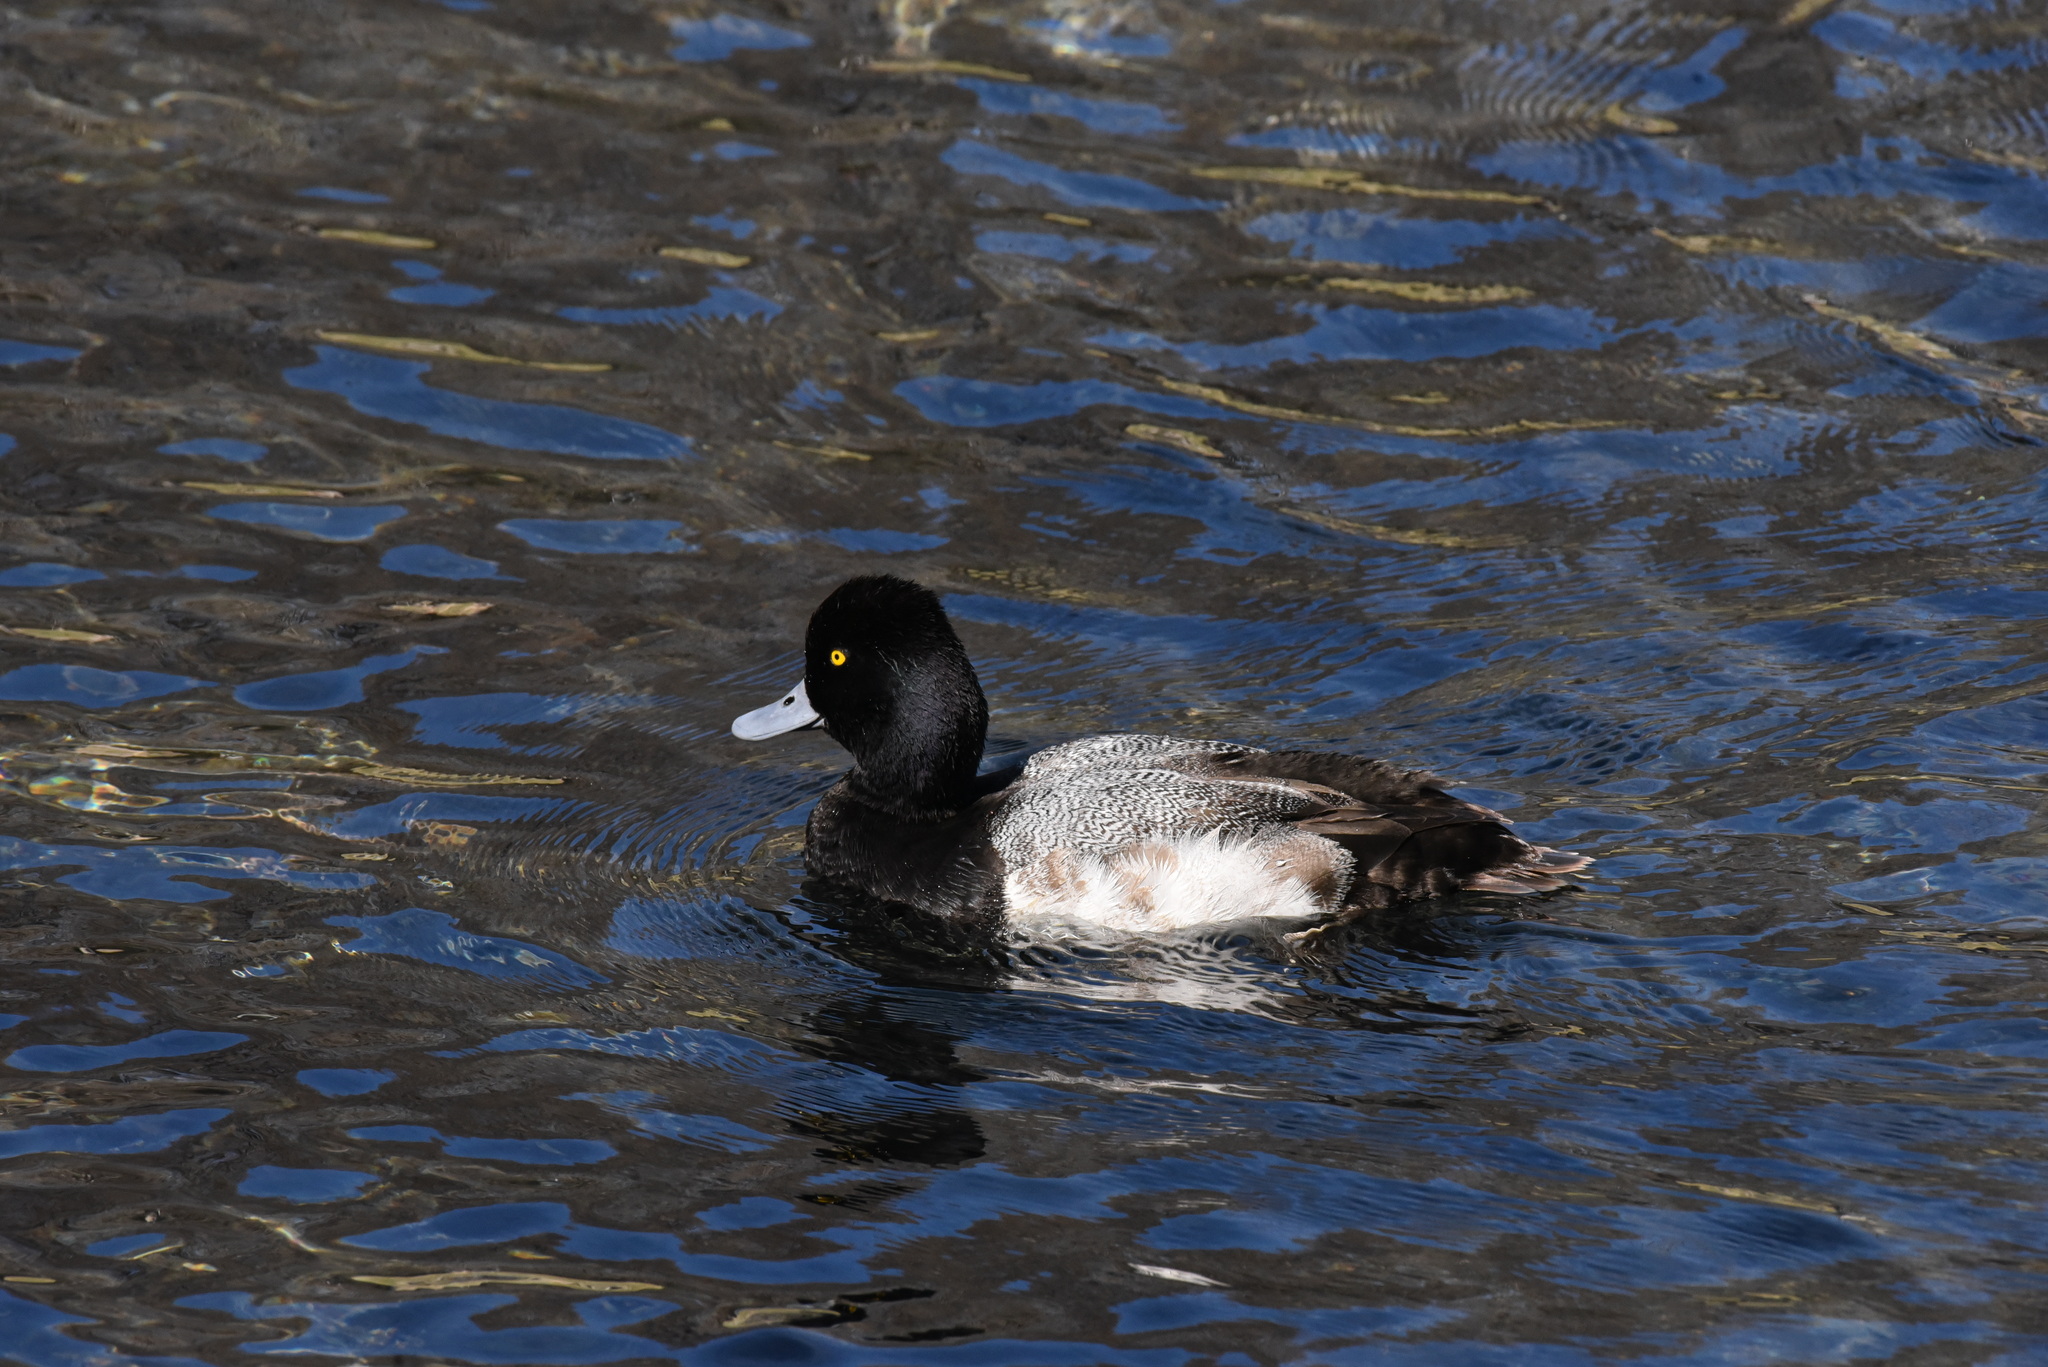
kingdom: Animalia
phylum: Chordata
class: Aves
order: Anseriformes
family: Anatidae
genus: Aythya
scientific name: Aythya affinis
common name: Lesser scaup
